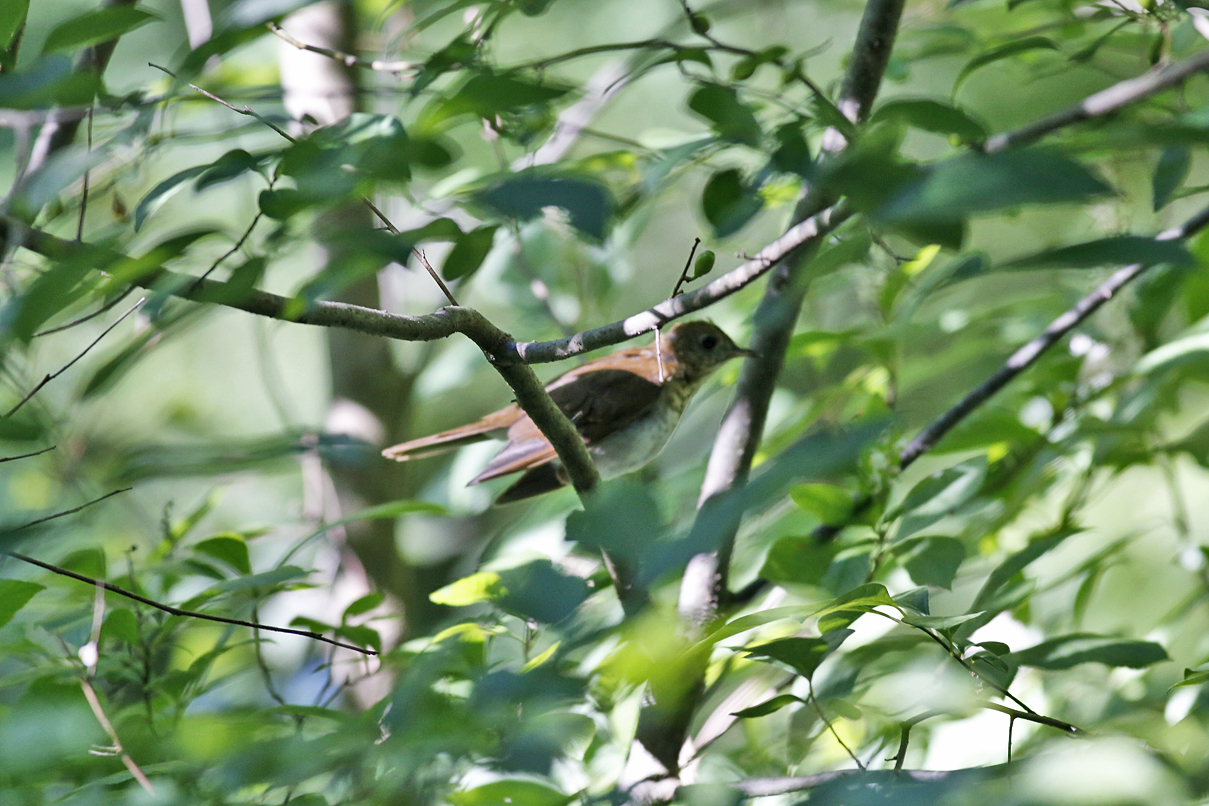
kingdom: Animalia
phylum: Chordata
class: Aves
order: Passeriformes
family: Turdidae
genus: Catharus
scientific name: Catharus fuscescens
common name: Veery
